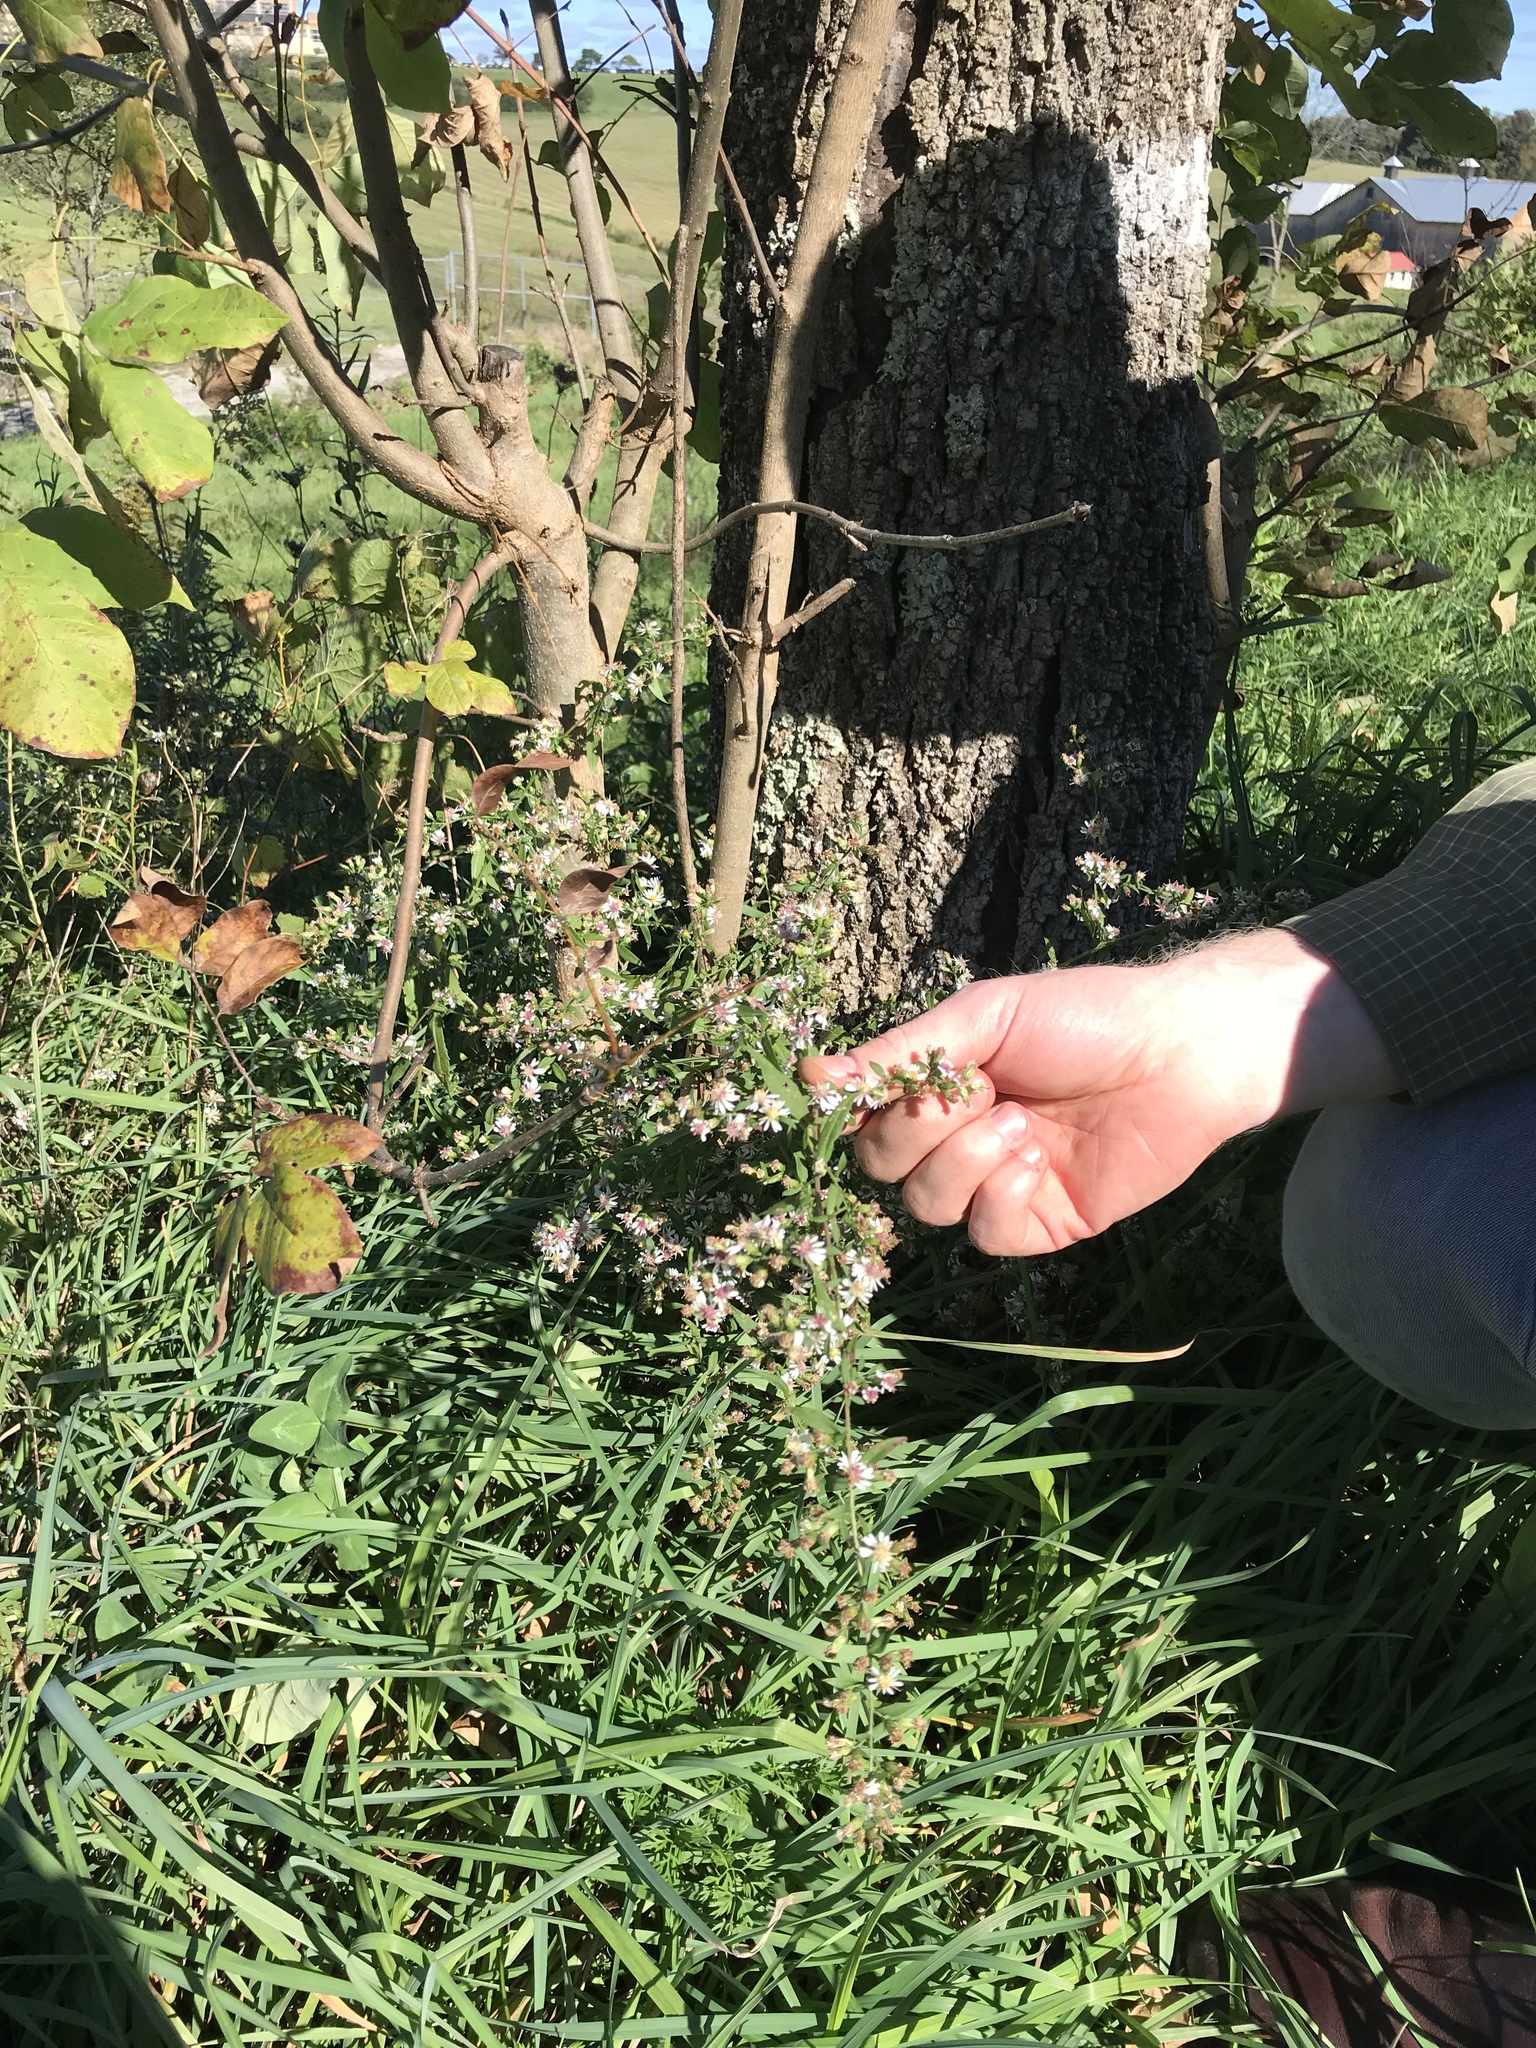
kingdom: Plantae
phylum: Tracheophyta
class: Magnoliopsida
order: Asterales
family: Asteraceae
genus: Symphyotrichum
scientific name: Symphyotrichum lateriflorum
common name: Calico aster
